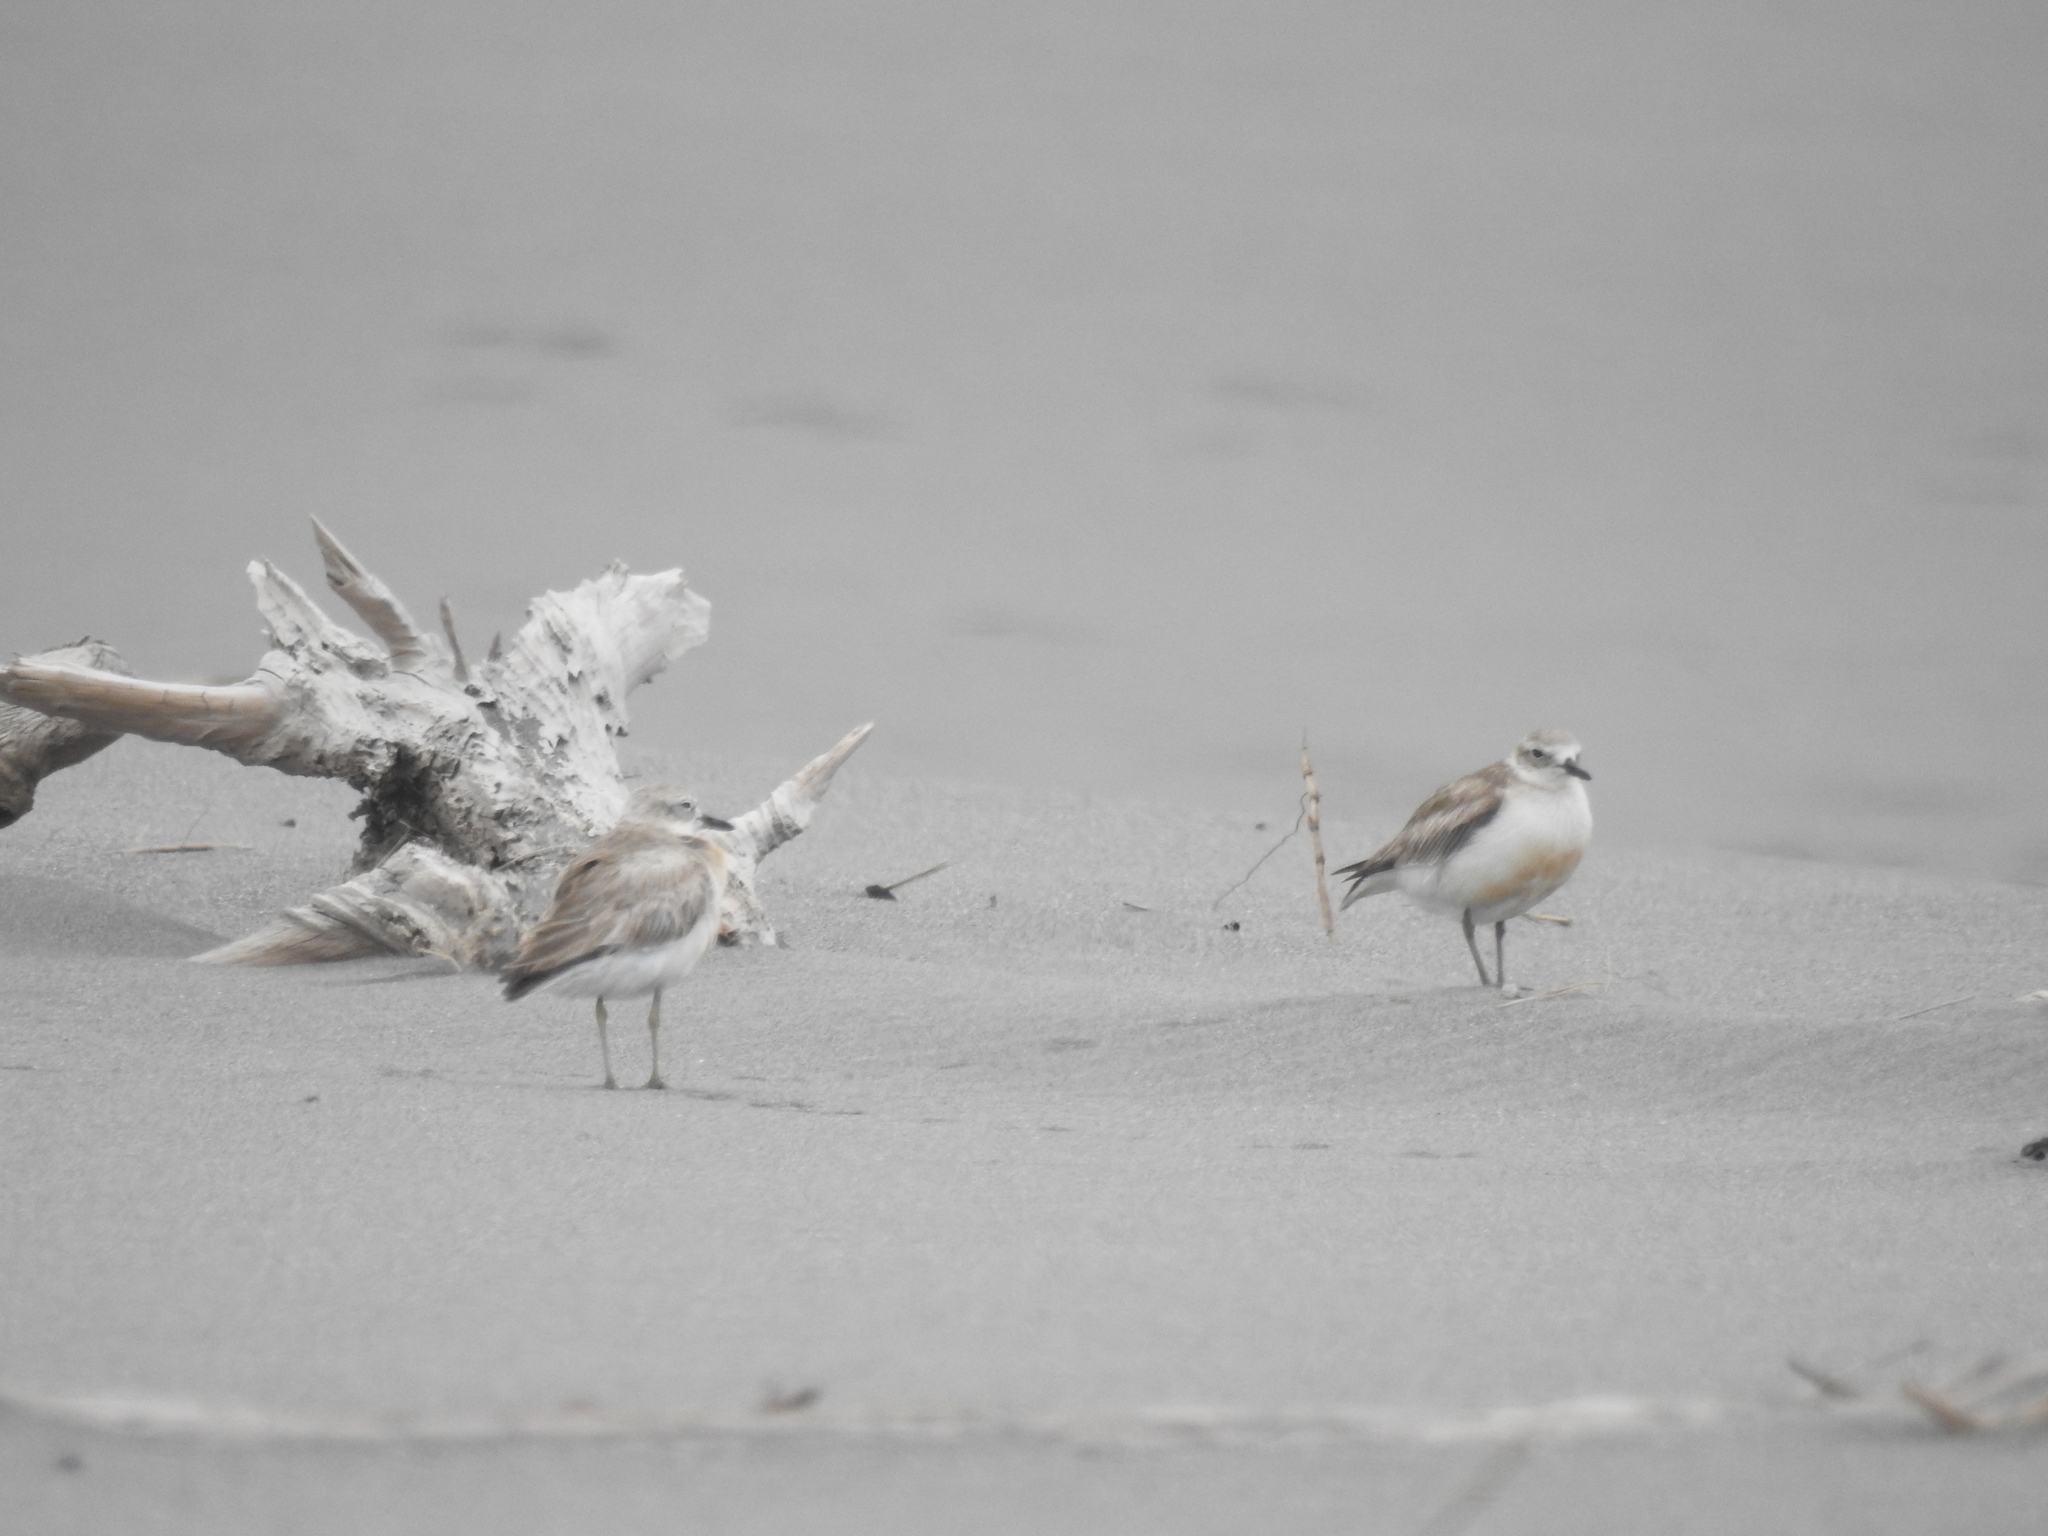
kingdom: Animalia
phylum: Chordata
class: Aves
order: Charadriiformes
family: Charadriidae
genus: Anarhynchus
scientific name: Anarhynchus
